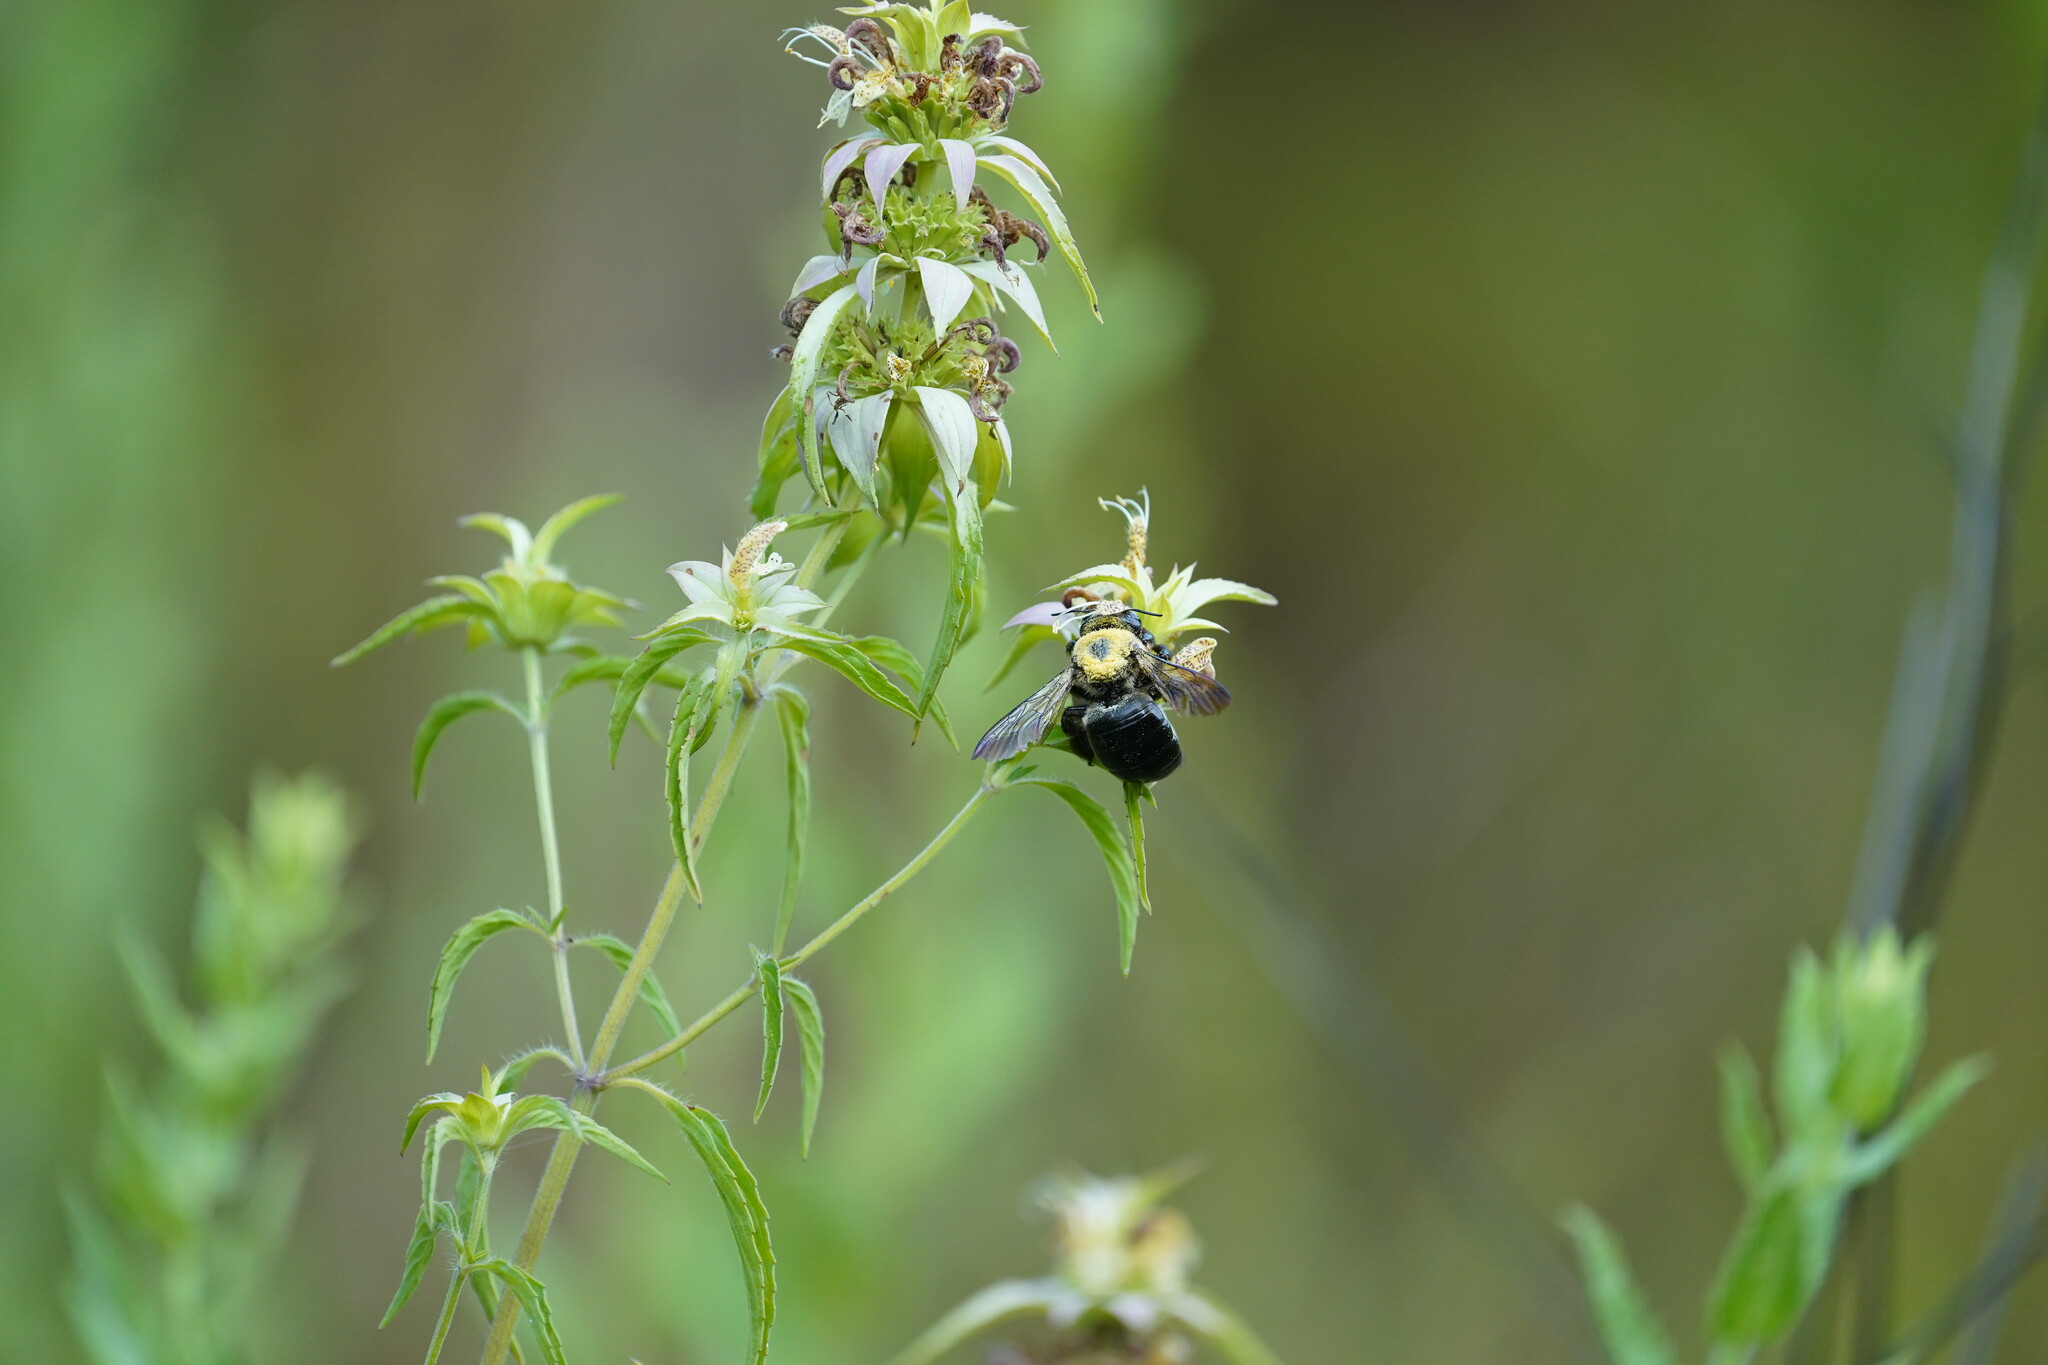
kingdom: Animalia
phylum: Arthropoda
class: Insecta
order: Hymenoptera
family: Apidae
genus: Xylocopa
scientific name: Xylocopa virginica
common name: Carpenter bee
